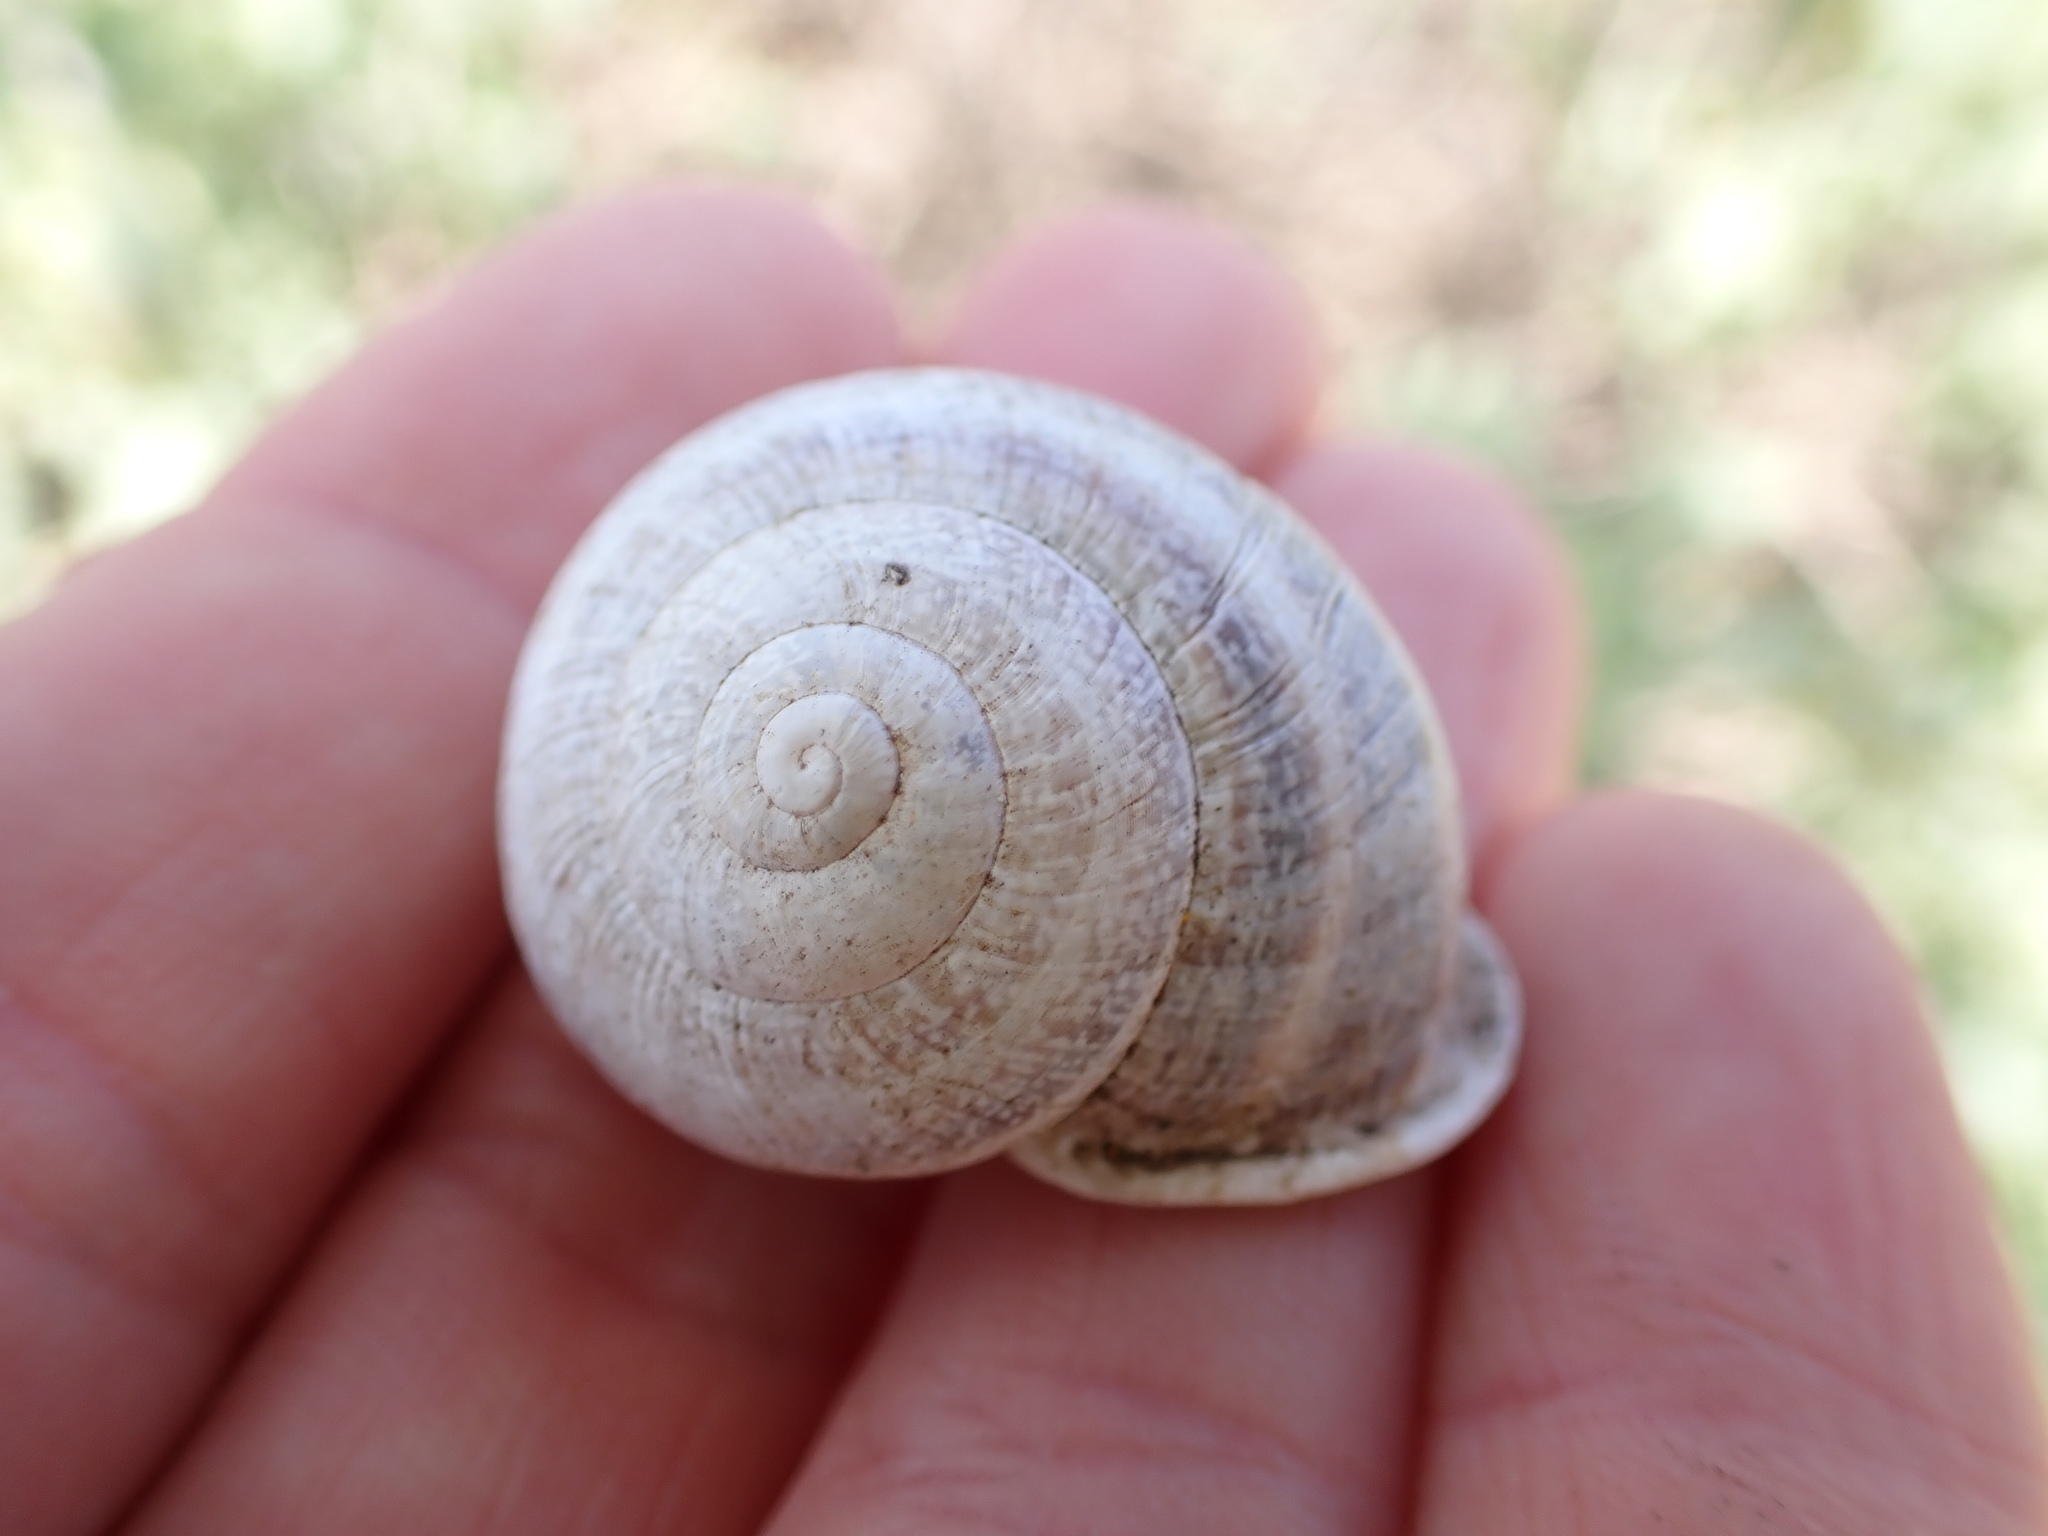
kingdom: Animalia
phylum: Mollusca
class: Gastropoda
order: Stylommatophora
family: Helicidae
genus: Otala
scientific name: Otala lactea
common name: Milk snail
